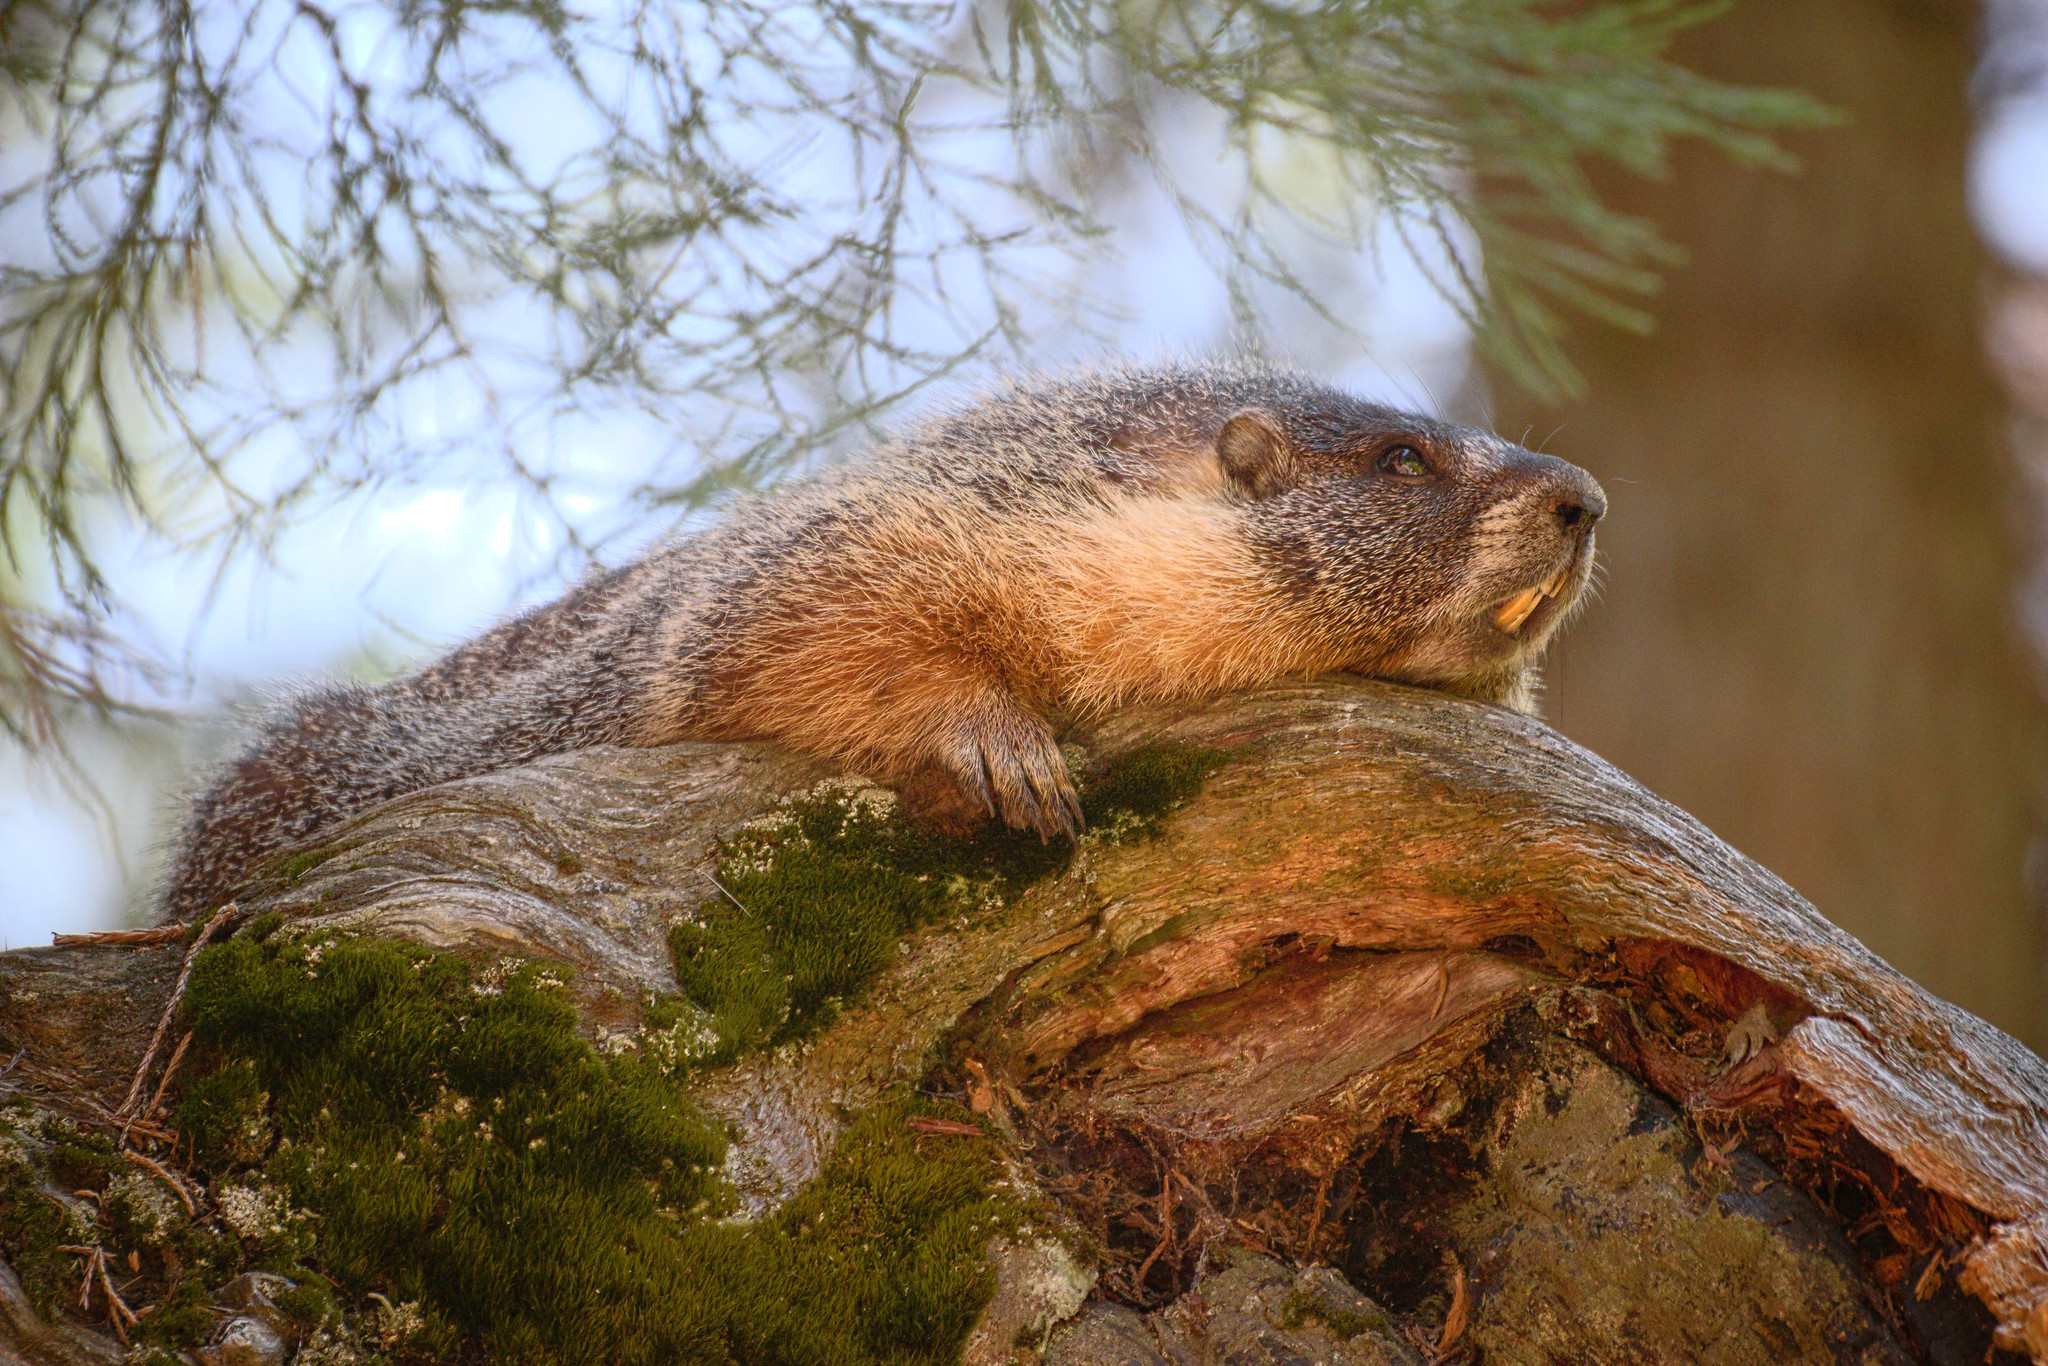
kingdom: Animalia
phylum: Chordata
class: Mammalia
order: Rodentia
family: Sciuridae
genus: Marmota
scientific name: Marmota flaviventris
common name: Yellow-bellied marmot
